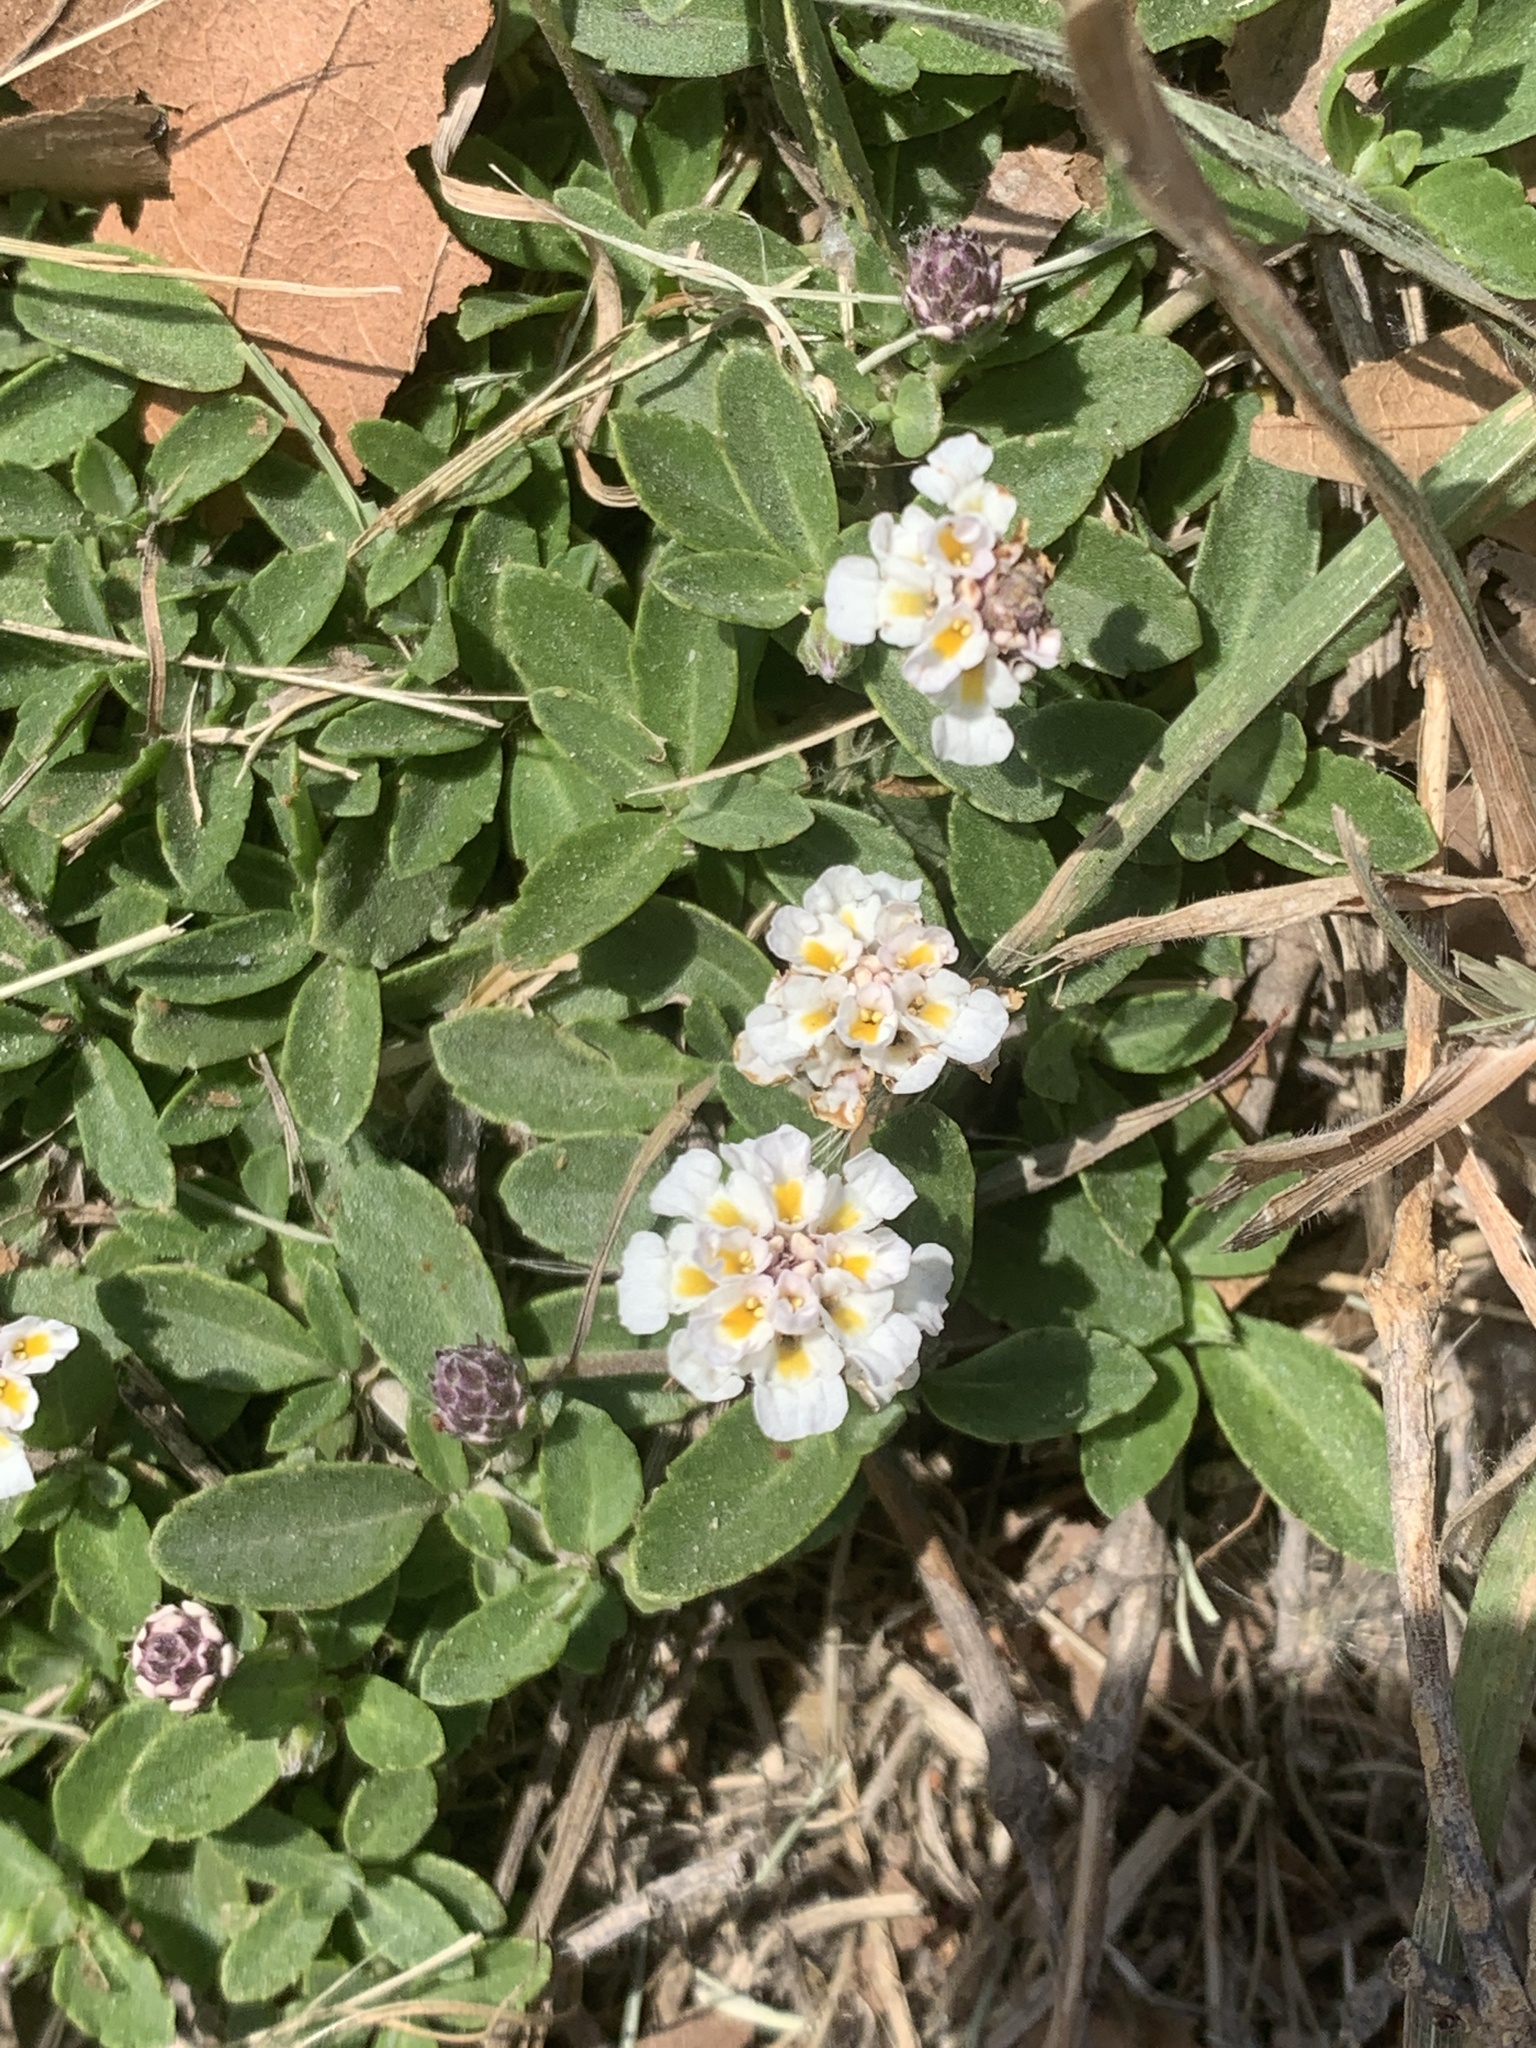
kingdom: Plantae
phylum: Tracheophyta
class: Magnoliopsida
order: Lamiales
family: Verbenaceae
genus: Phyla
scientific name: Phyla nodiflora
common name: Frogfruit
